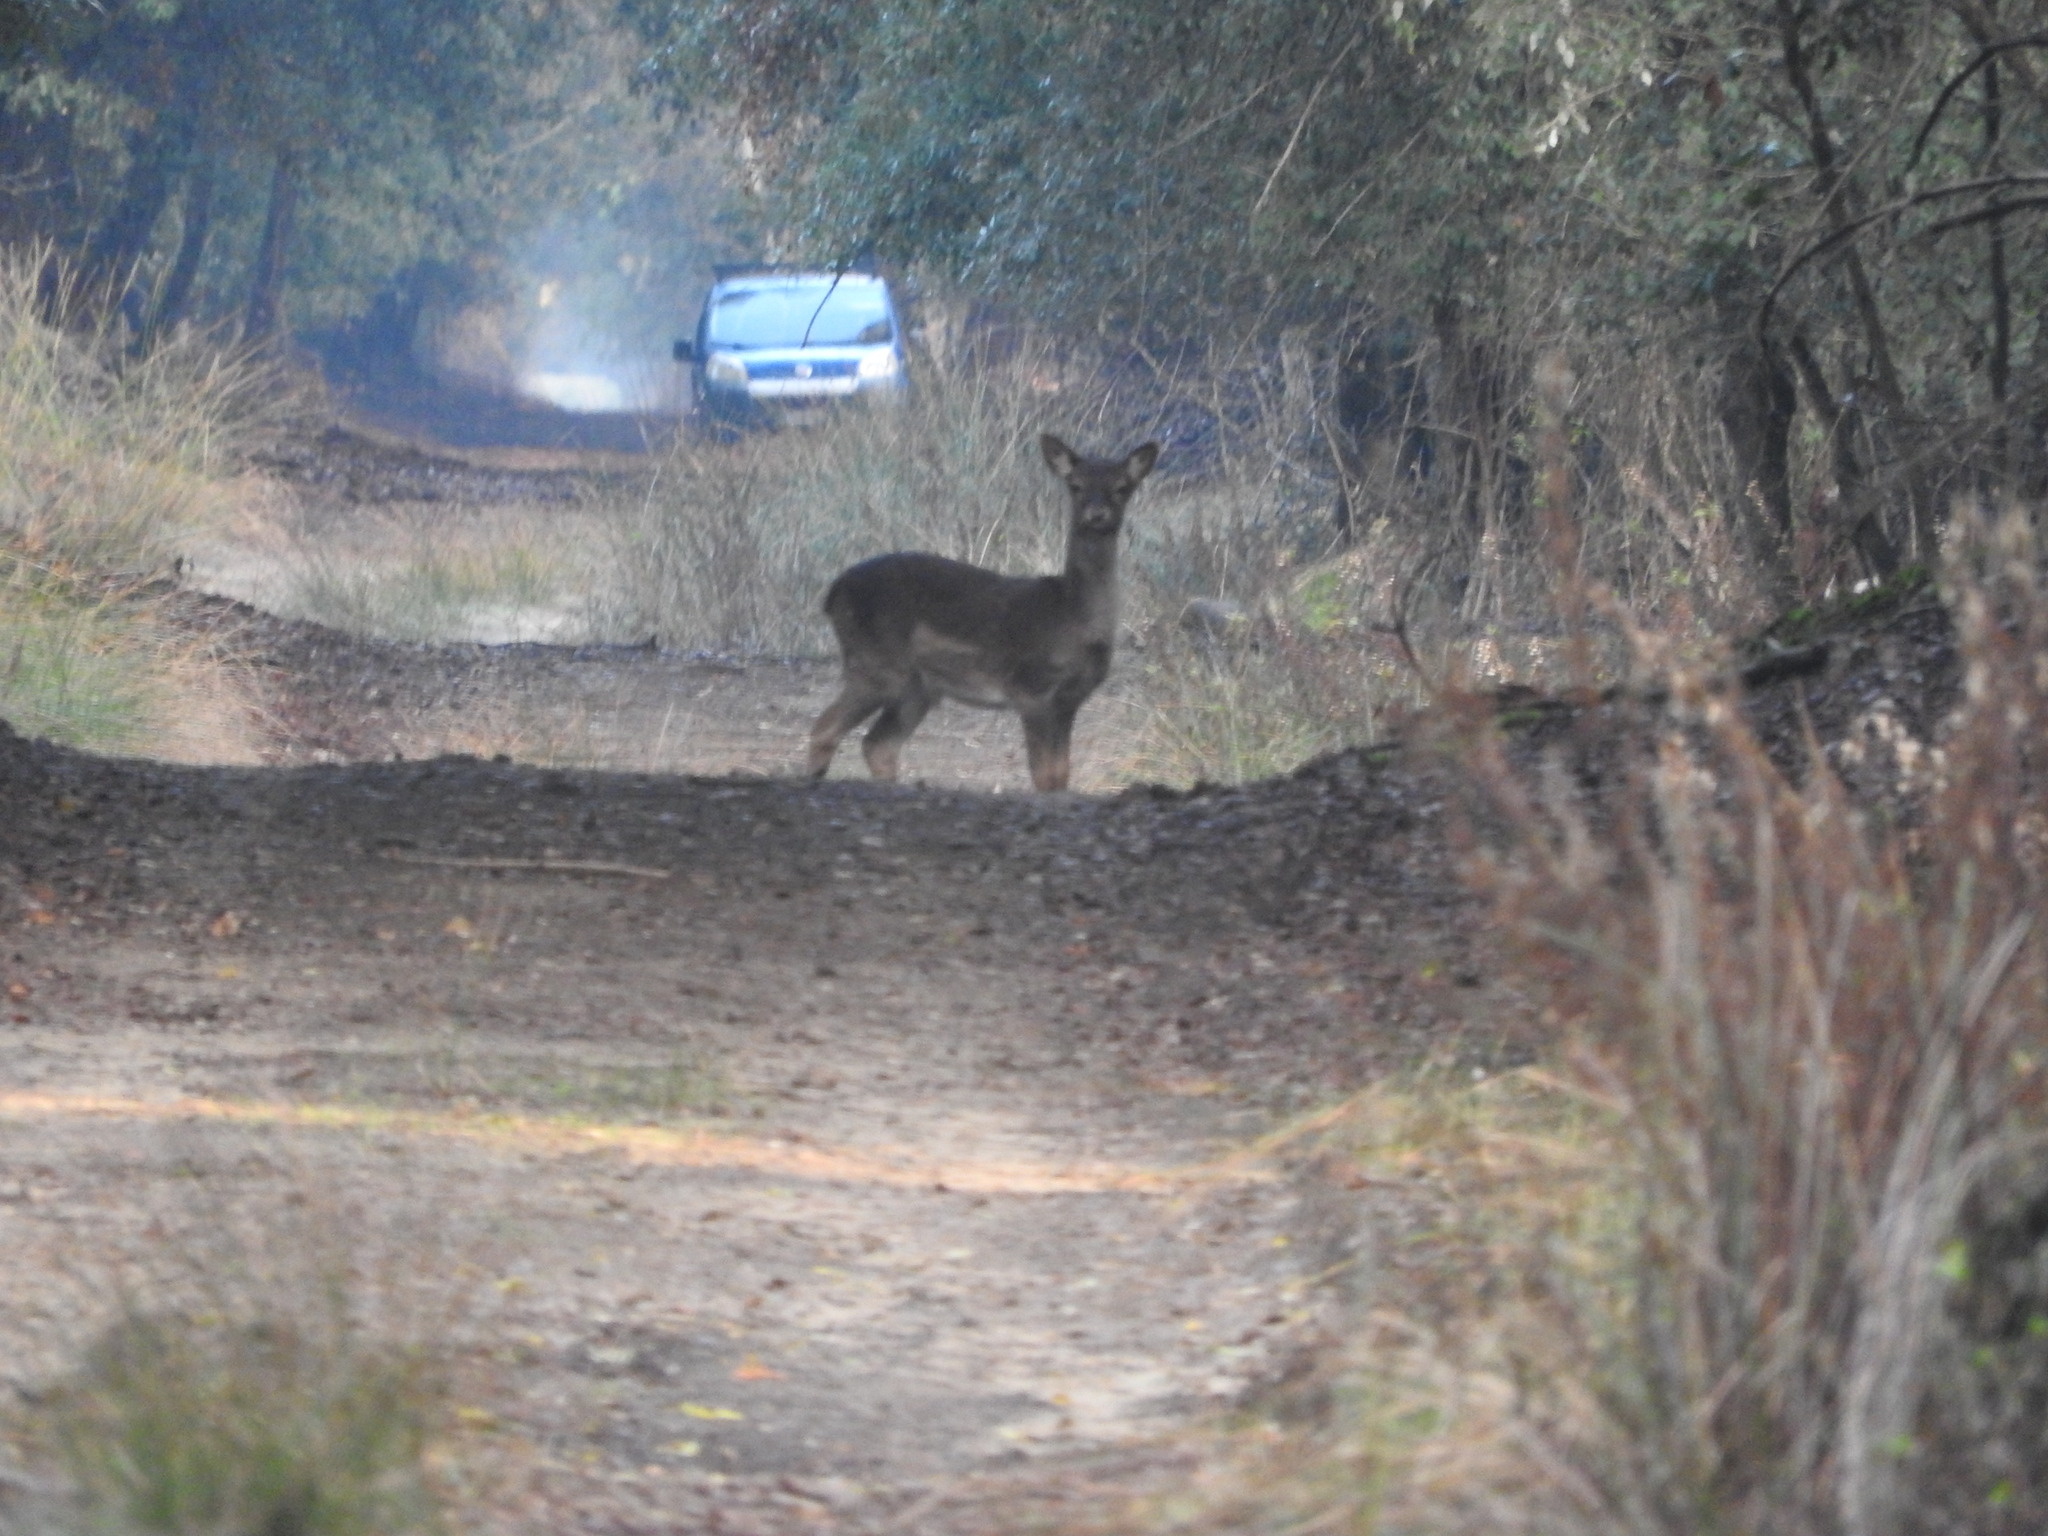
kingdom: Animalia
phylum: Chordata
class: Mammalia
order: Artiodactyla
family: Cervidae
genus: Dama
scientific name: Dama dama
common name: Fallow deer
